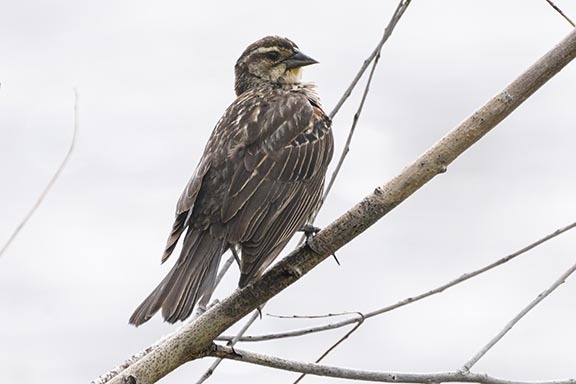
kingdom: Animalia
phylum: Chordata
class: Aves
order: Passeriformes
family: Icteridae
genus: Agelaius
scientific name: Agelaius phoeniceus
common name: Red-winged blackbird
